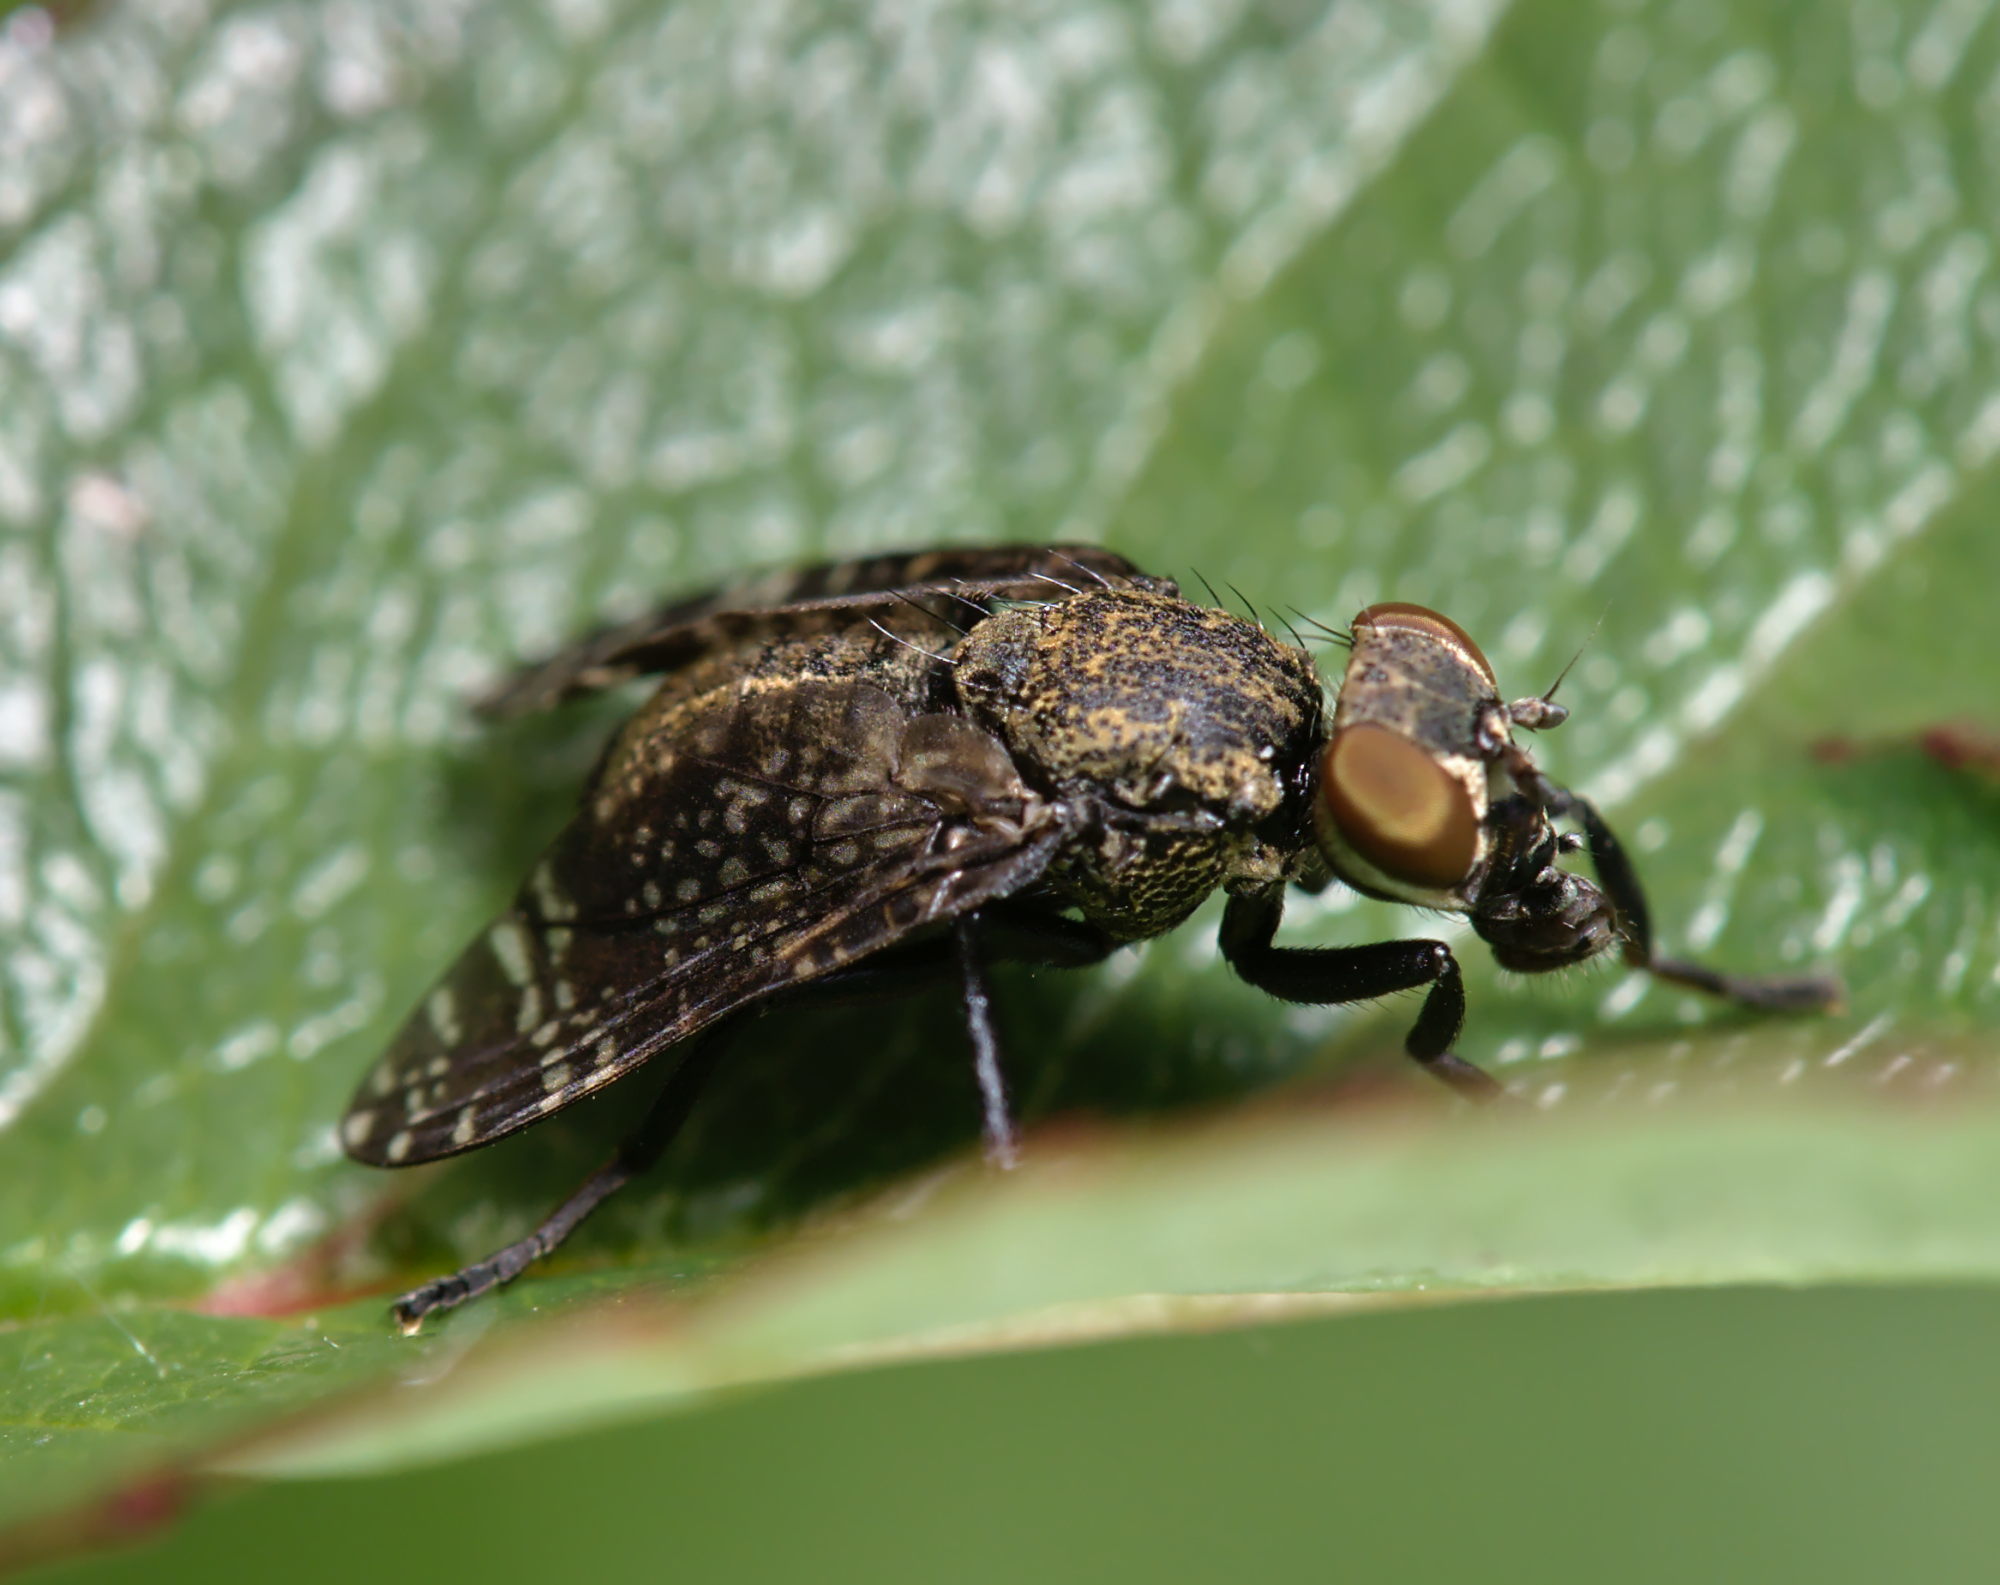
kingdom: Animalia
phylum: Arthropoda
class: Insecta
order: Diptera
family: Platystomatidae
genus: Platystoma
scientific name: Platystoma seminationis
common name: Fly
